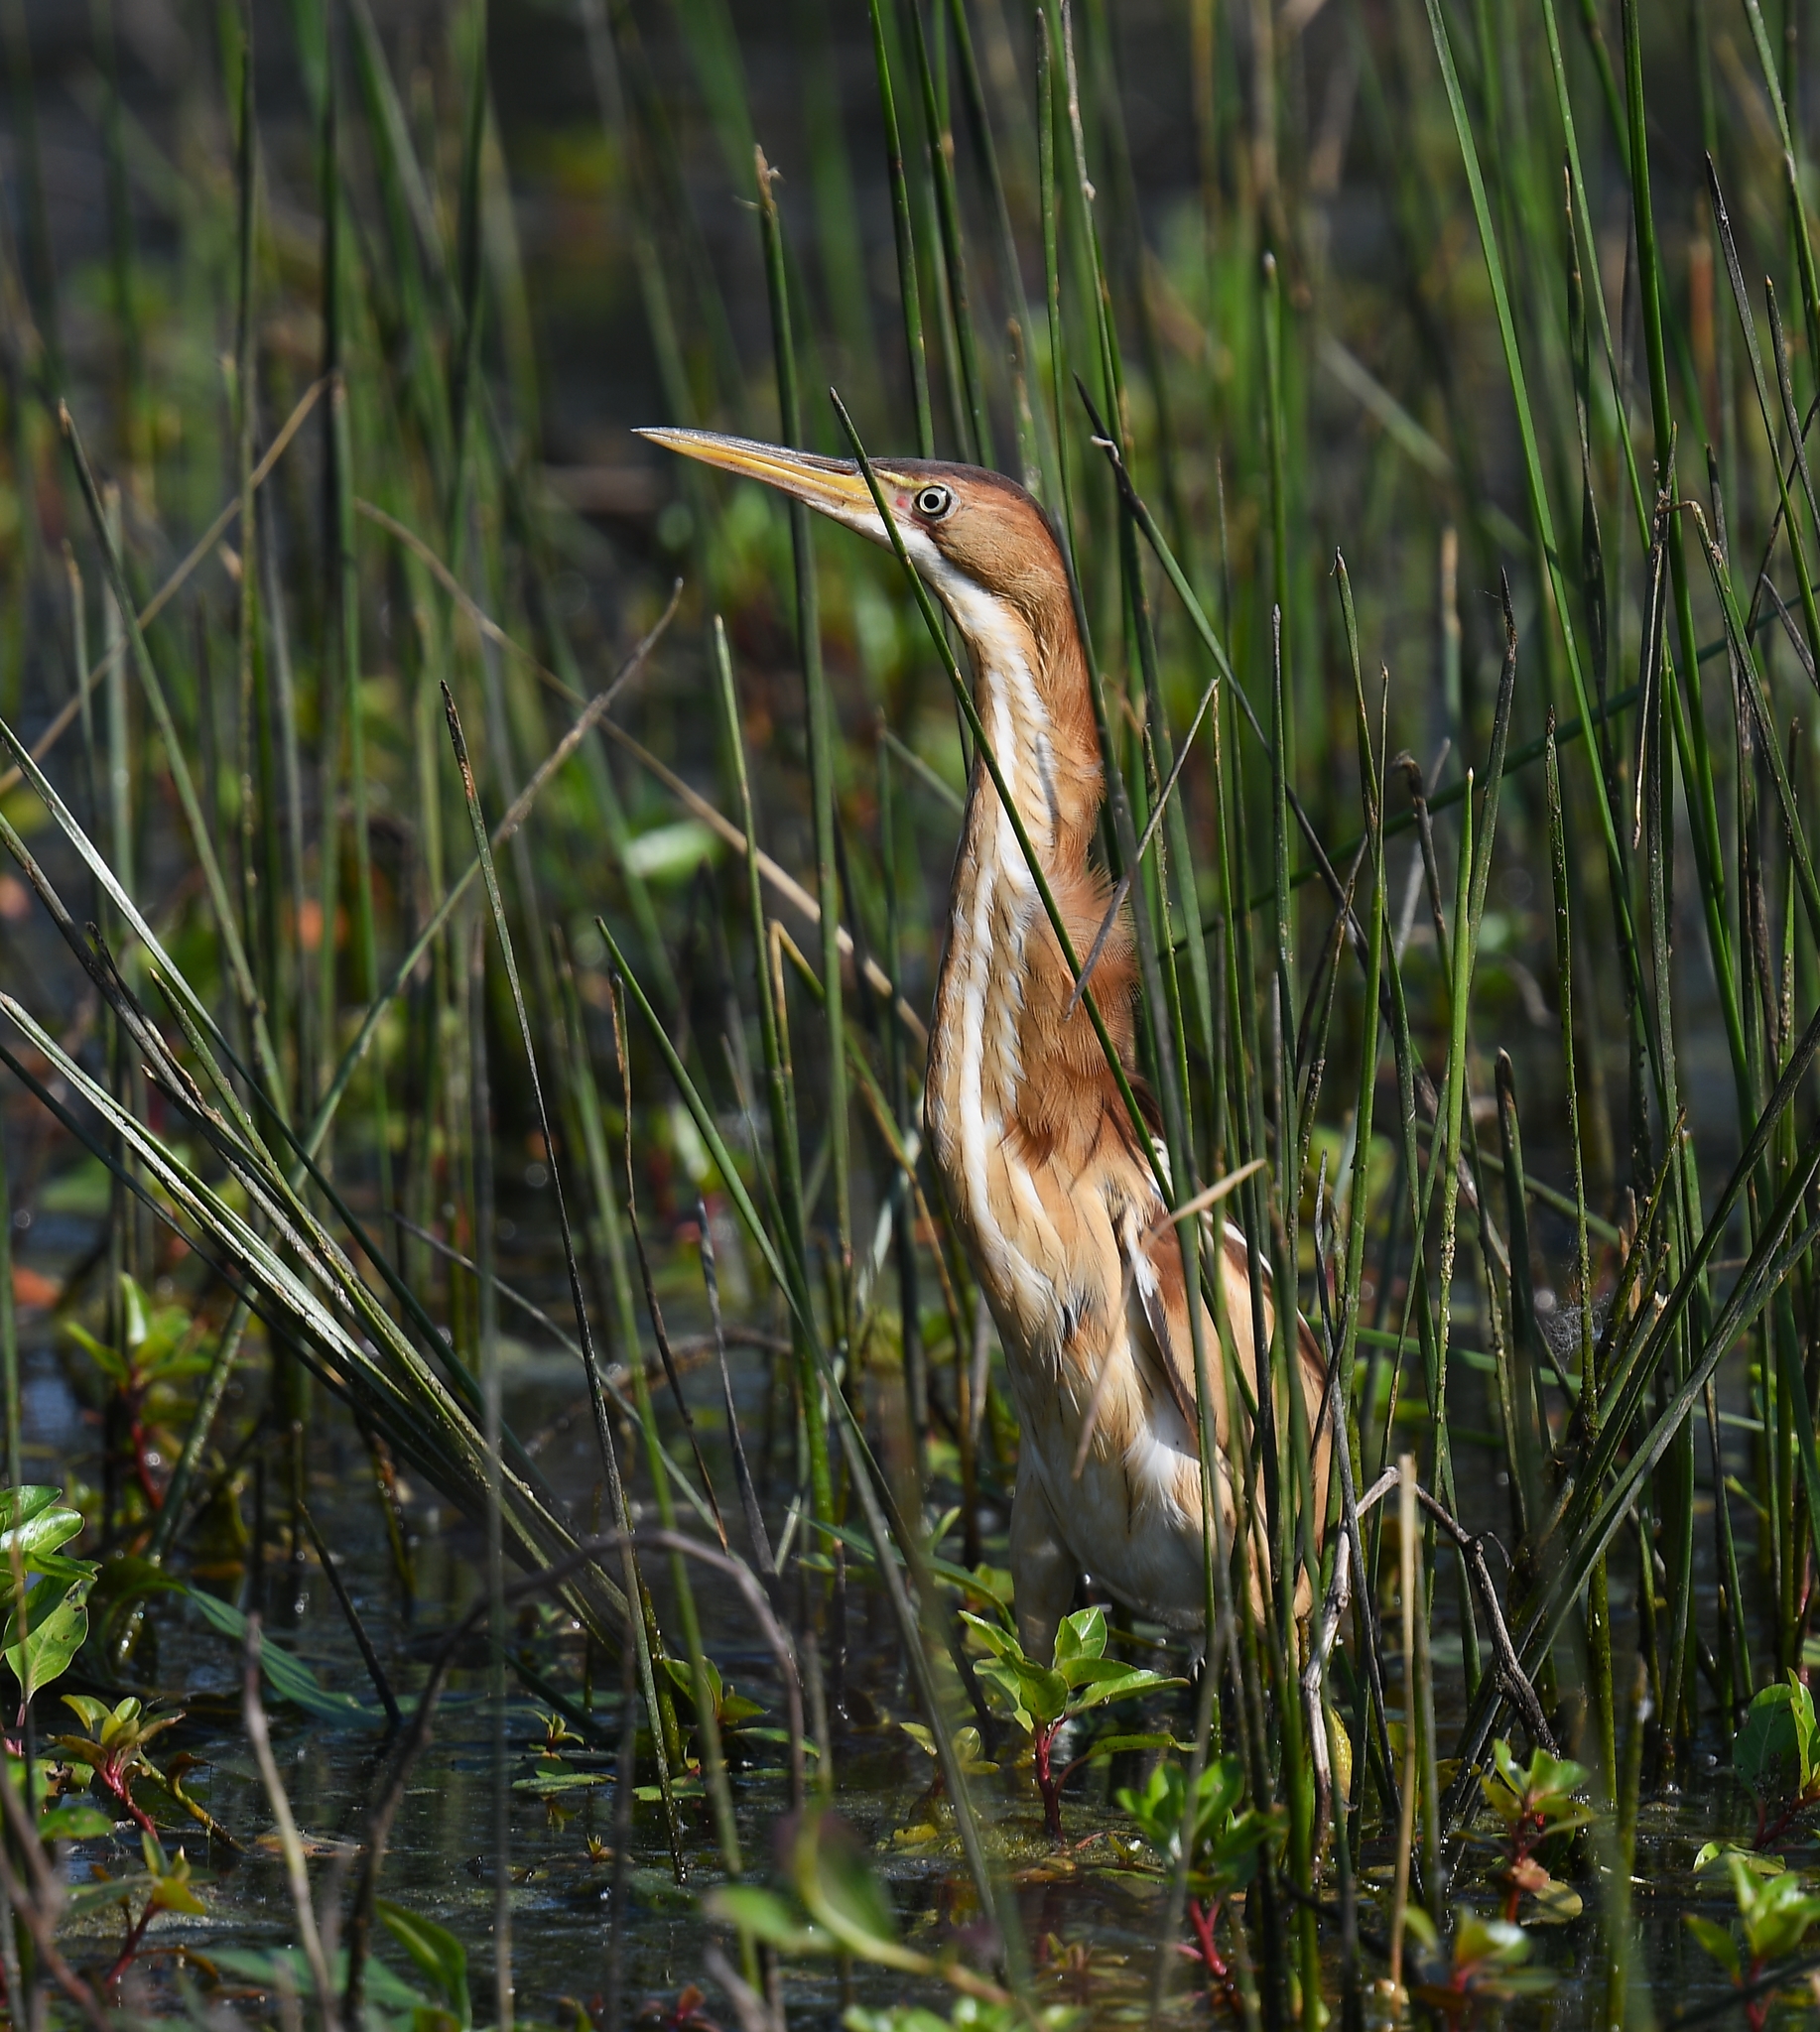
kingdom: Animalia
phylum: Chordata
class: Aves
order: Pelecaniformes
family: Ardeidae
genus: Ixobrychus
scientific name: Ixobrychus exilis
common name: Least bittern
